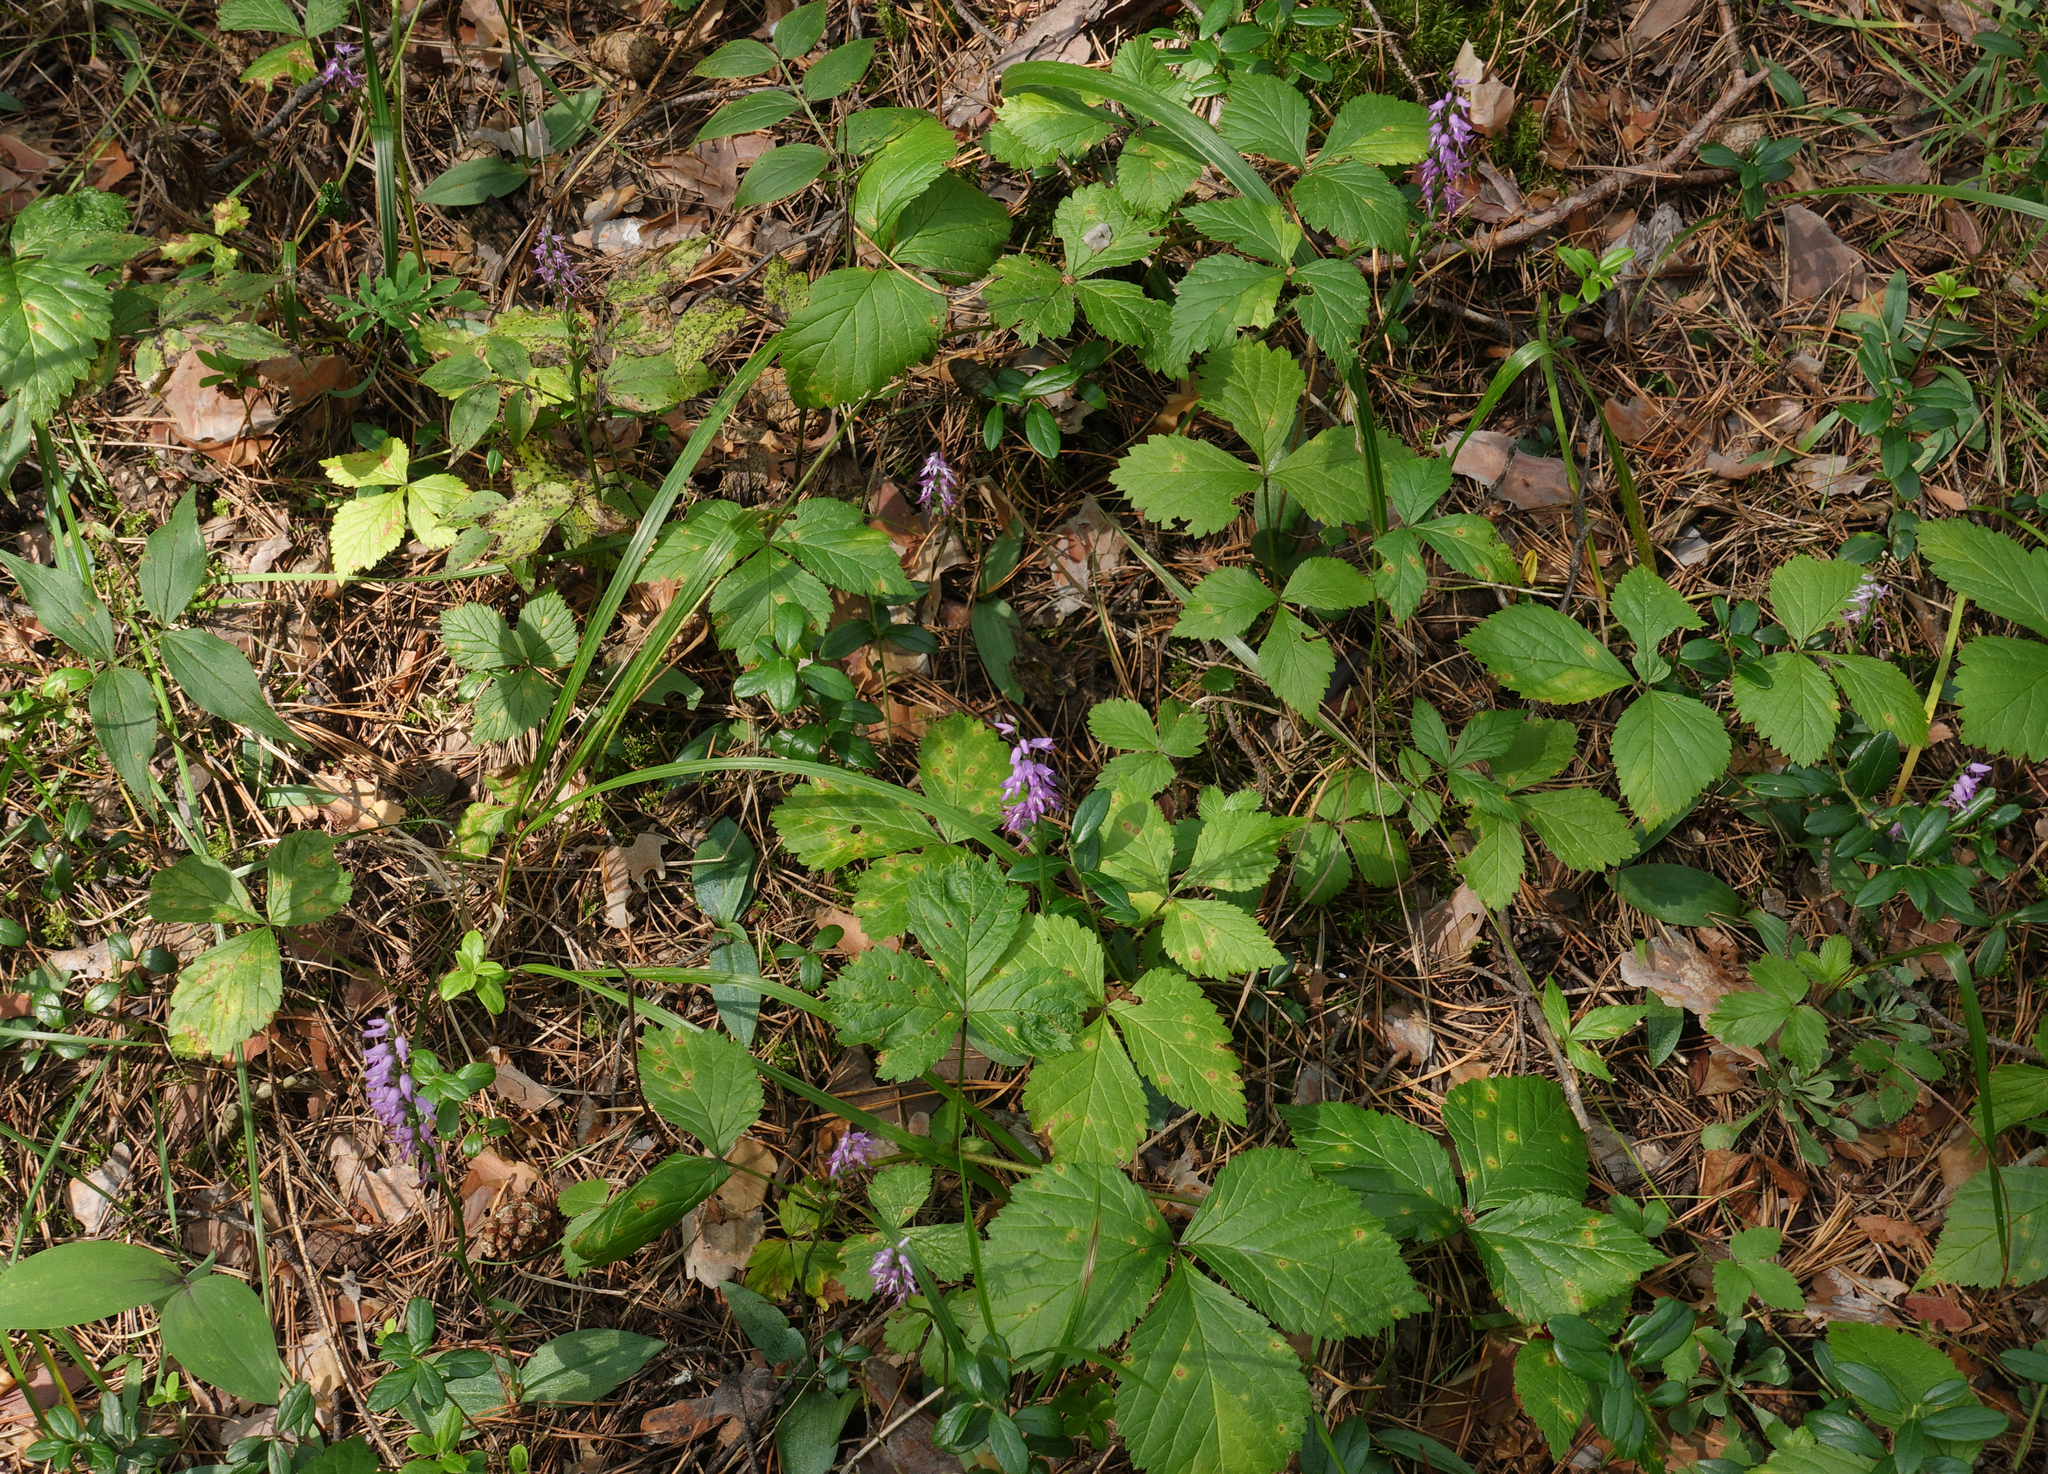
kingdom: Plantae
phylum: Tracheophyta
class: Liliopsida
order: Asparagales
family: Orchidaceae
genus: Hemipilia
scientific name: Hemipilia cucullata
